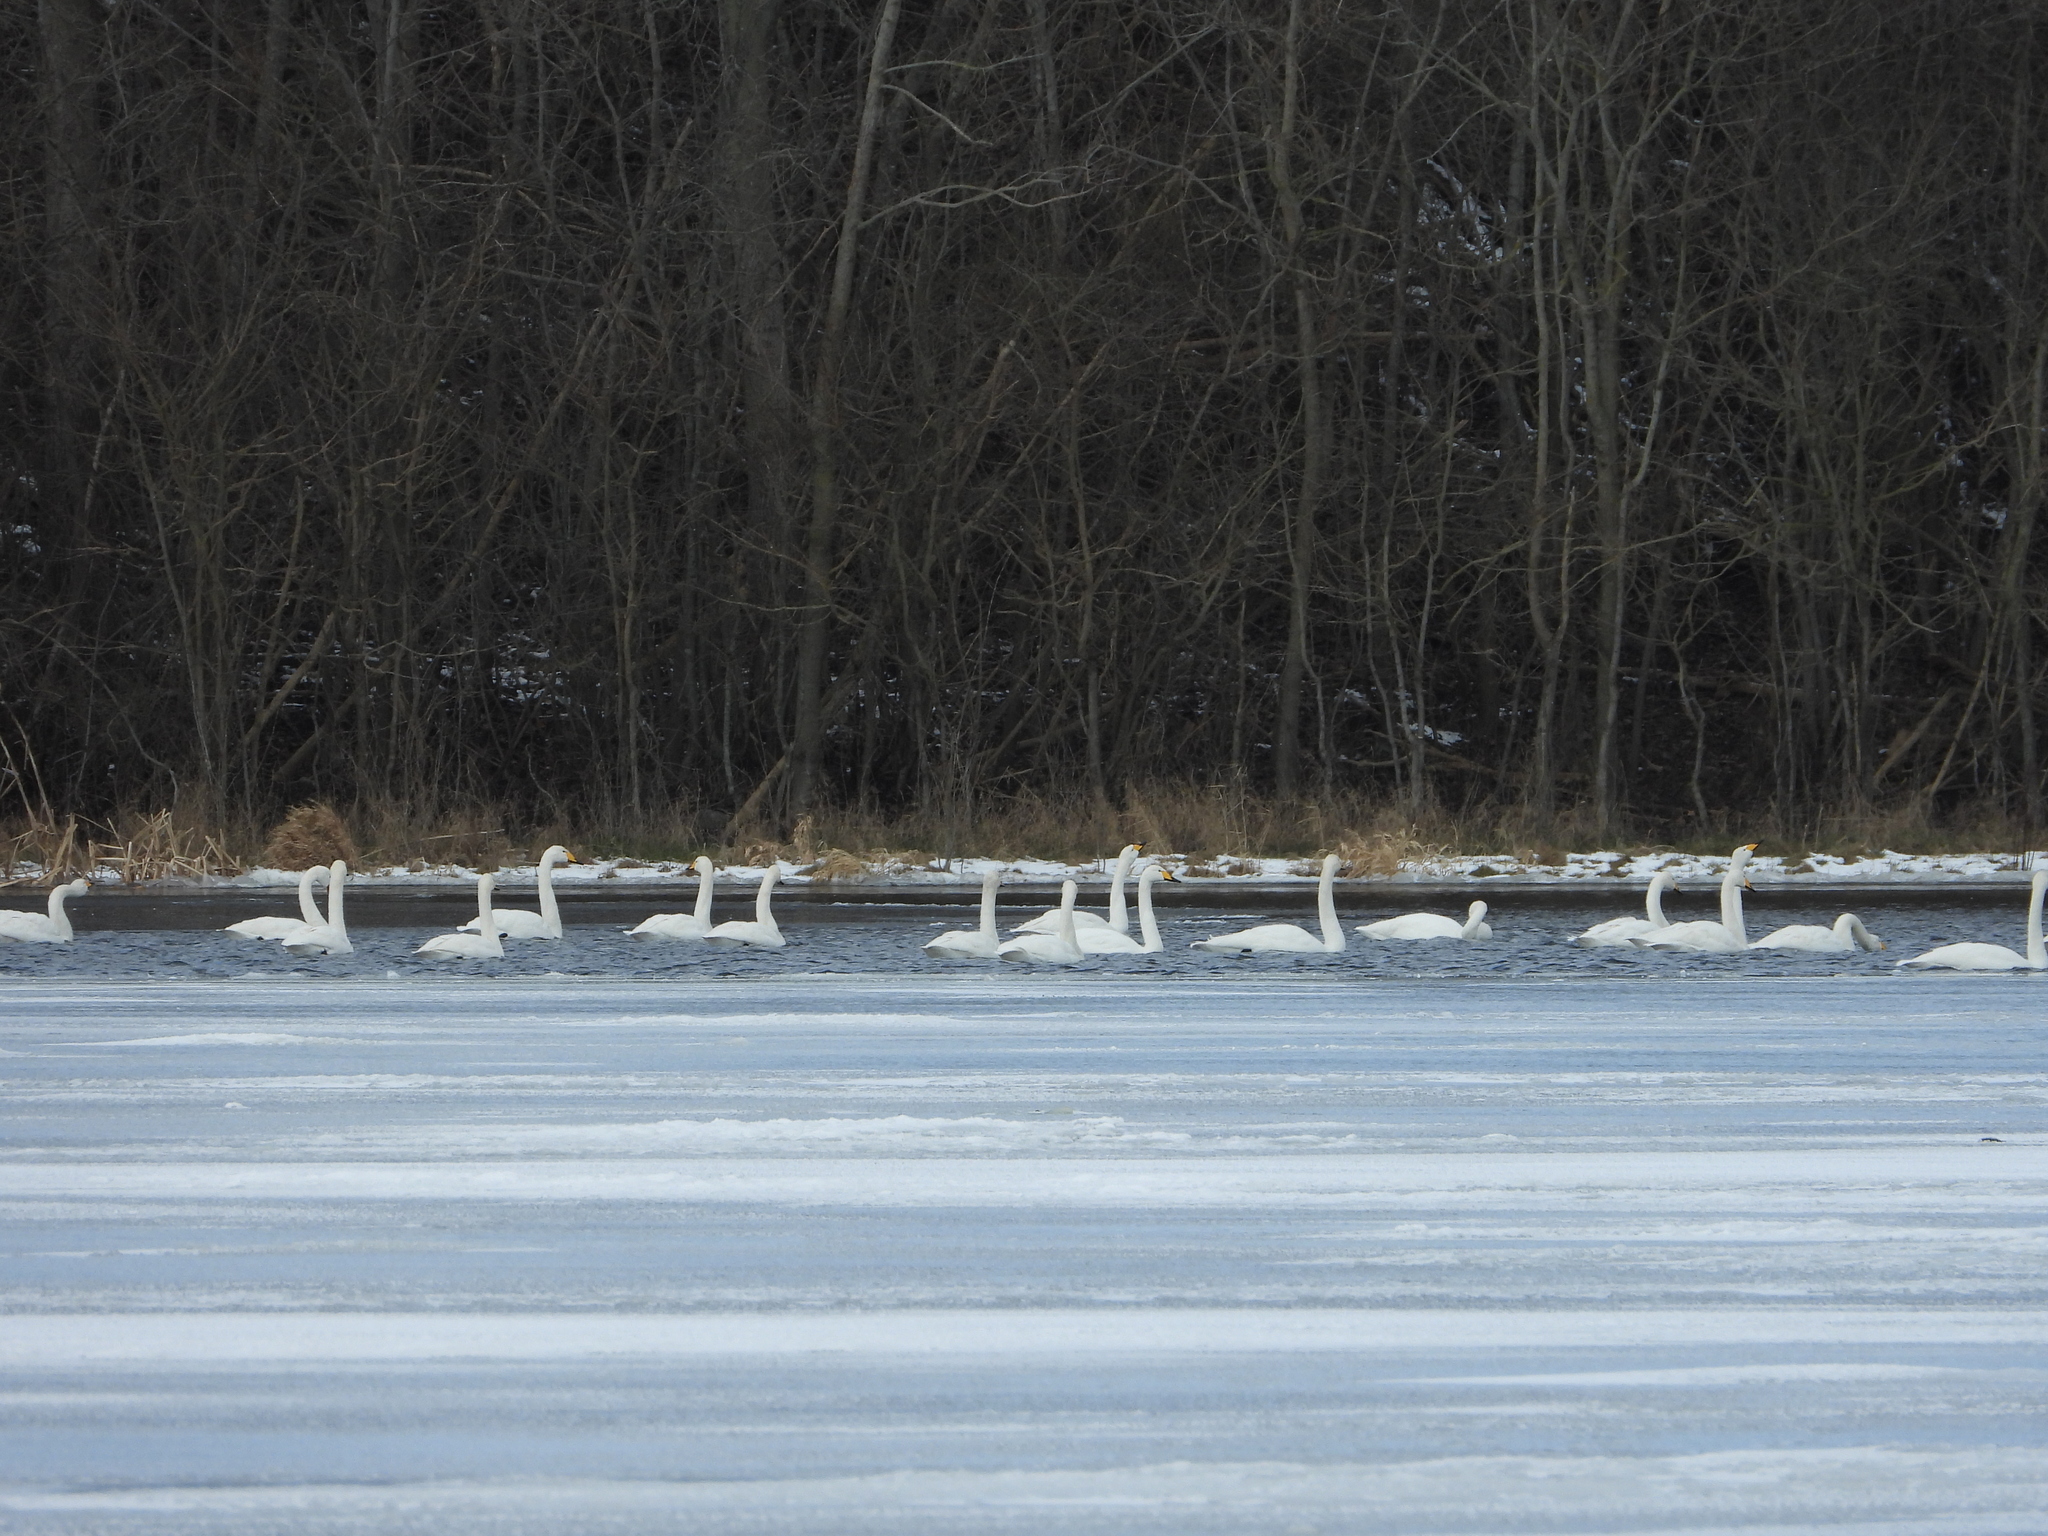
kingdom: Animalia
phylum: Chordata
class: Aves
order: Anseriformes
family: Anatidae
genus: Cygnus
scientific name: Cygnus cygnus
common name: Whooper swan
